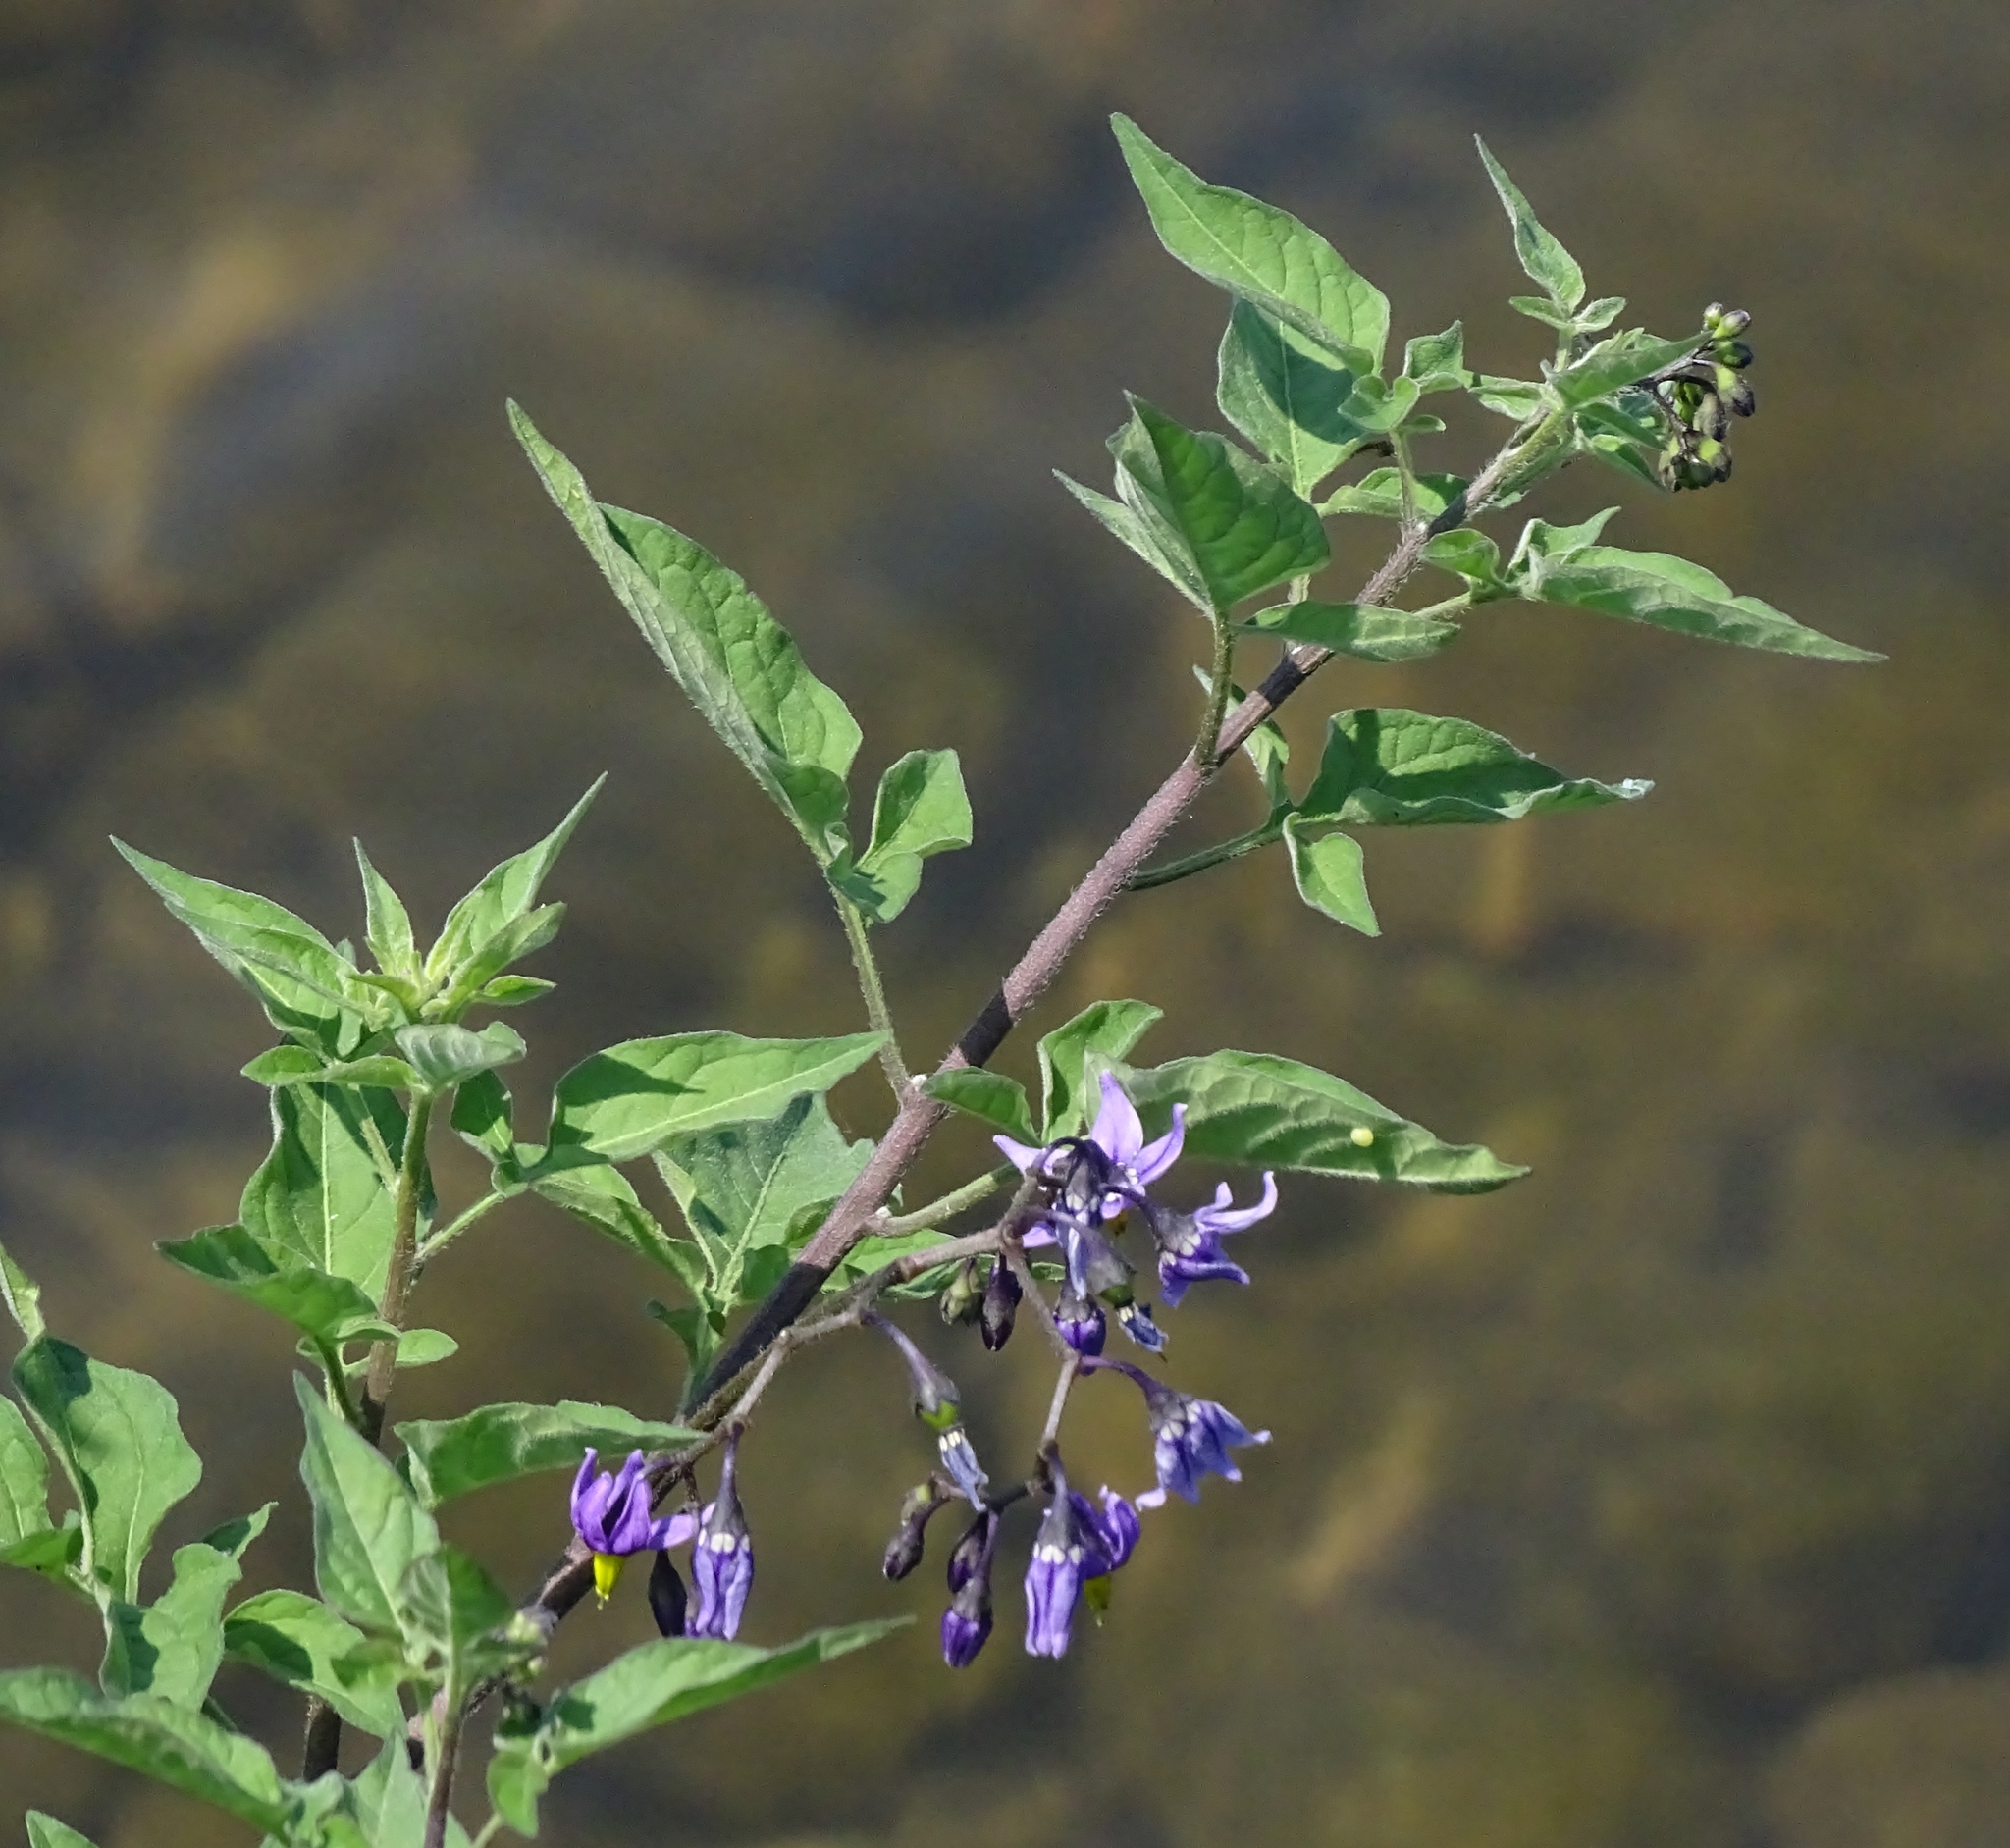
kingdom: Plantae
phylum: Tracheophyta
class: Magnoliopsida
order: Solanales
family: Solanaceae
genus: Solanum
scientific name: Solanum dulcamara
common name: Climbing nightshade
